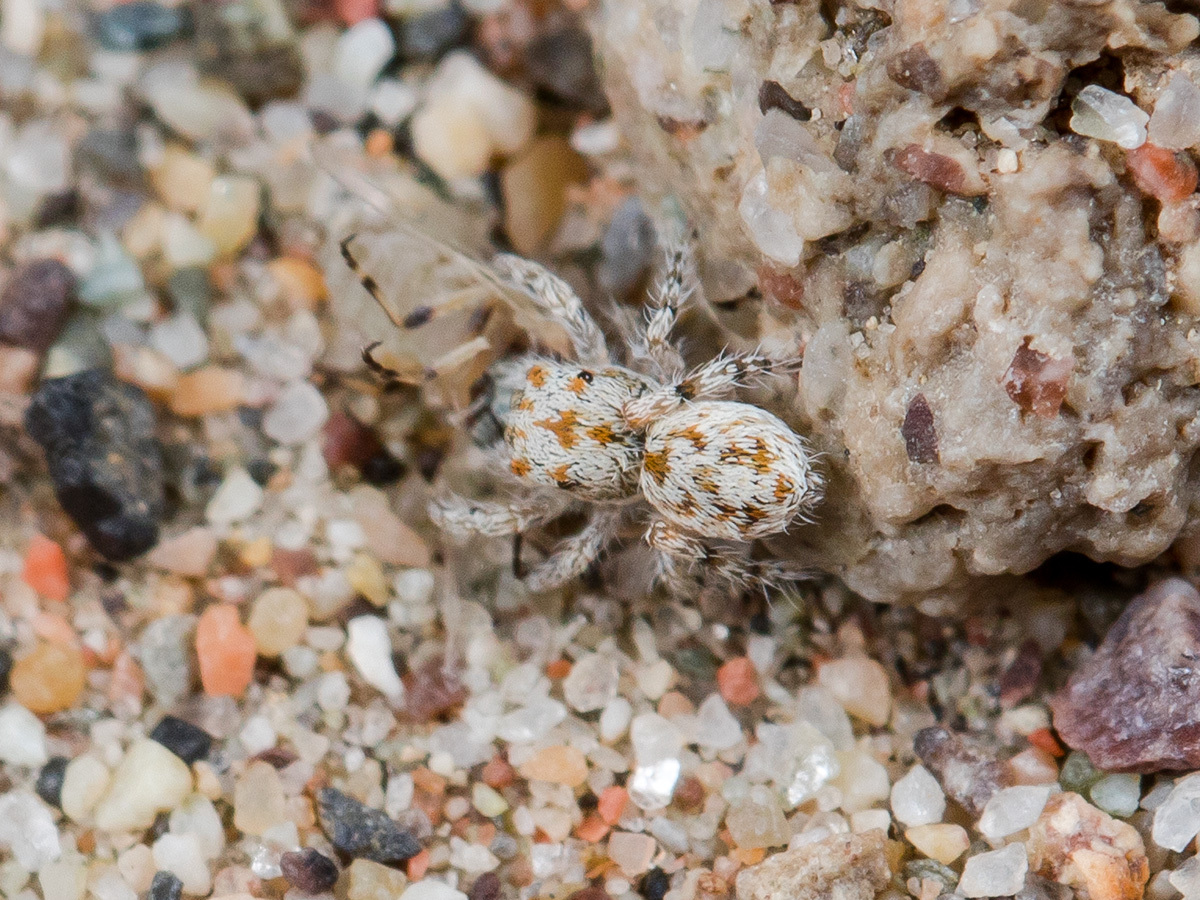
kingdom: Animalia
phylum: Arthropoda
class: Arachnida
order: Araneae
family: Salticidae
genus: Yllenus
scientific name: Yllenus uiguricus
